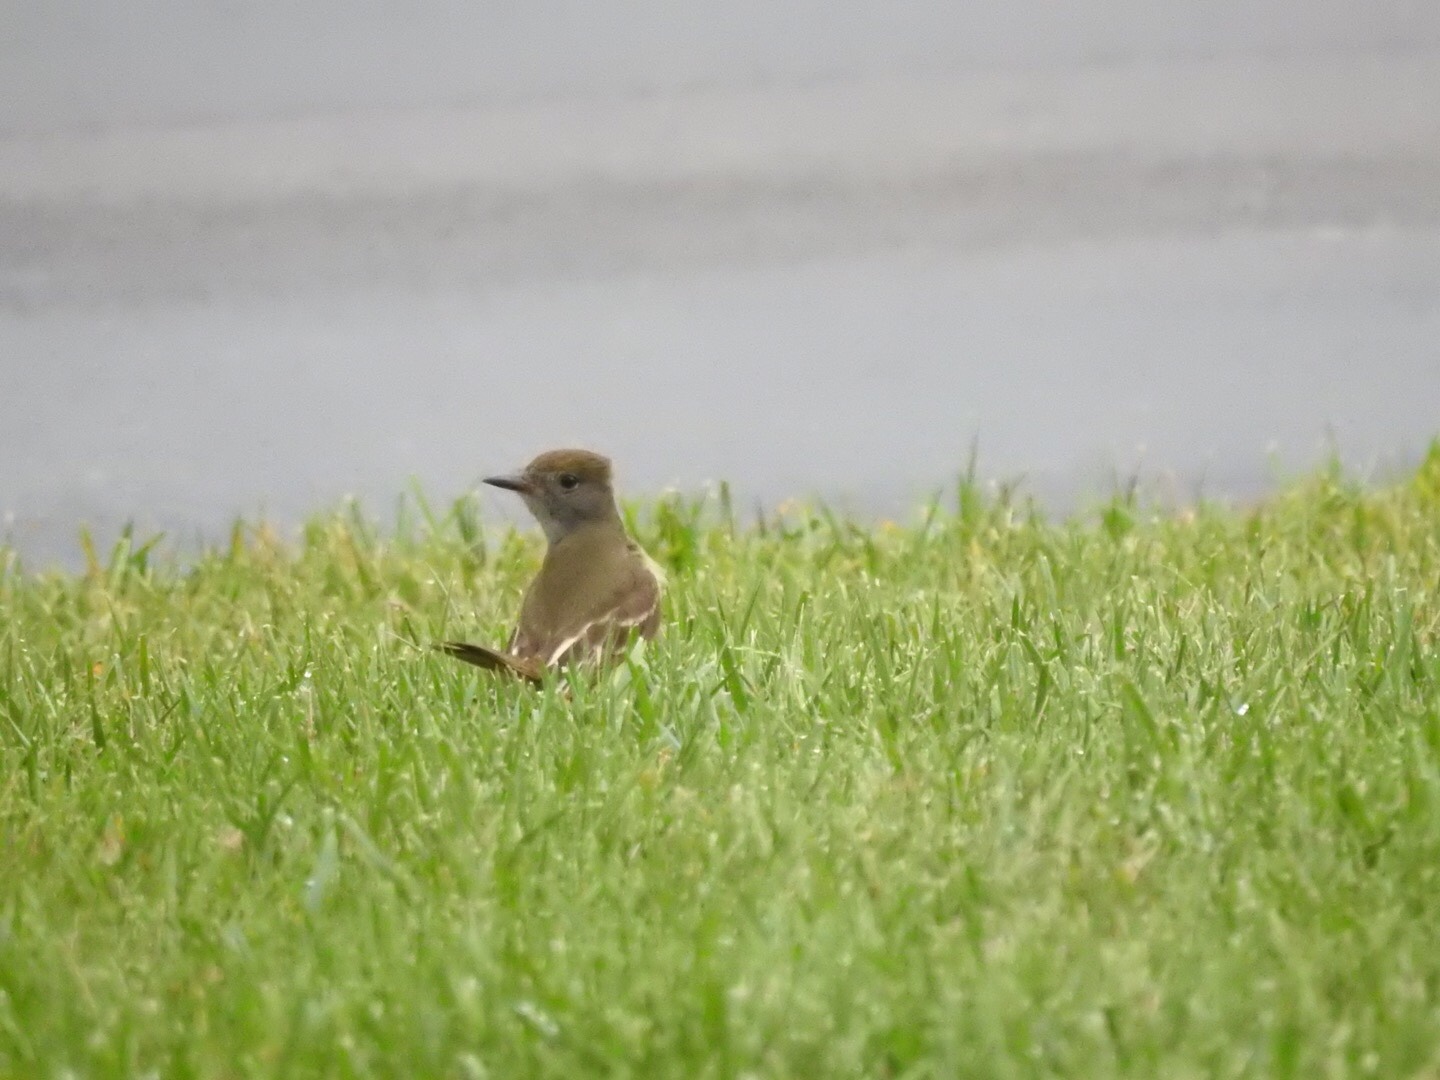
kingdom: Animalia
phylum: Chordata
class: Aves
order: Passeriformes
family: Tyrannidae
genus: Myiarchus
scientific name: Myiarchus crinitus
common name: Great crested flycatcher
